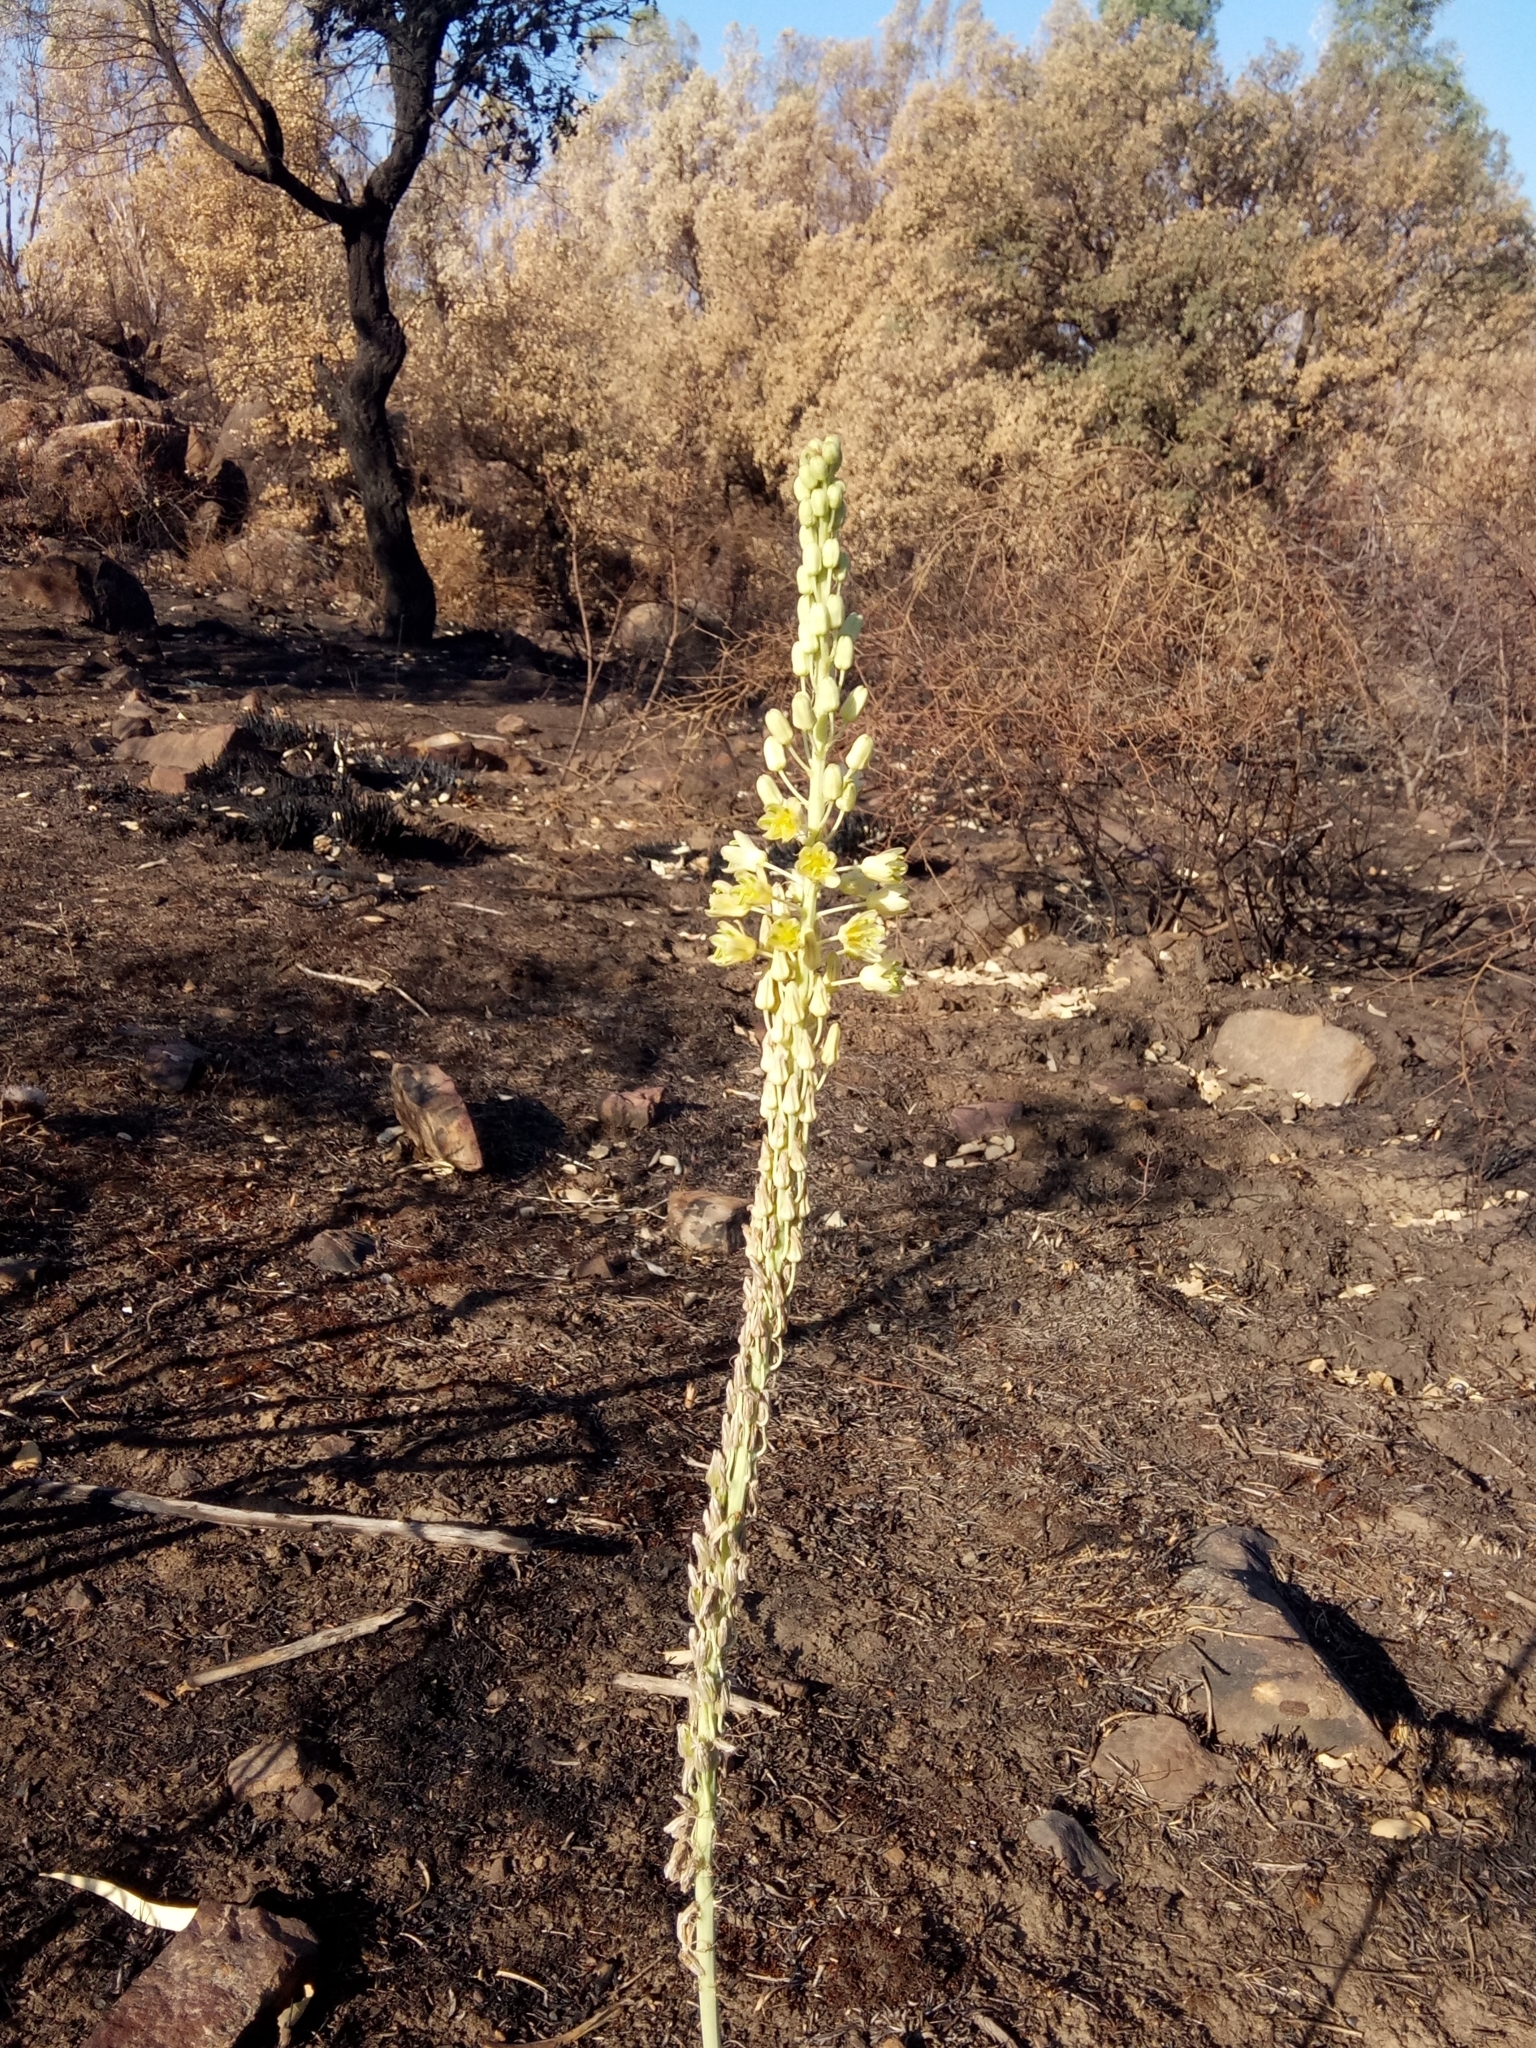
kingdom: Plantae
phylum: Tracheophyta
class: Liliopsida
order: Asparagales
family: Asparagaceae
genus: Drimia
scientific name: Drimia anthericoides
